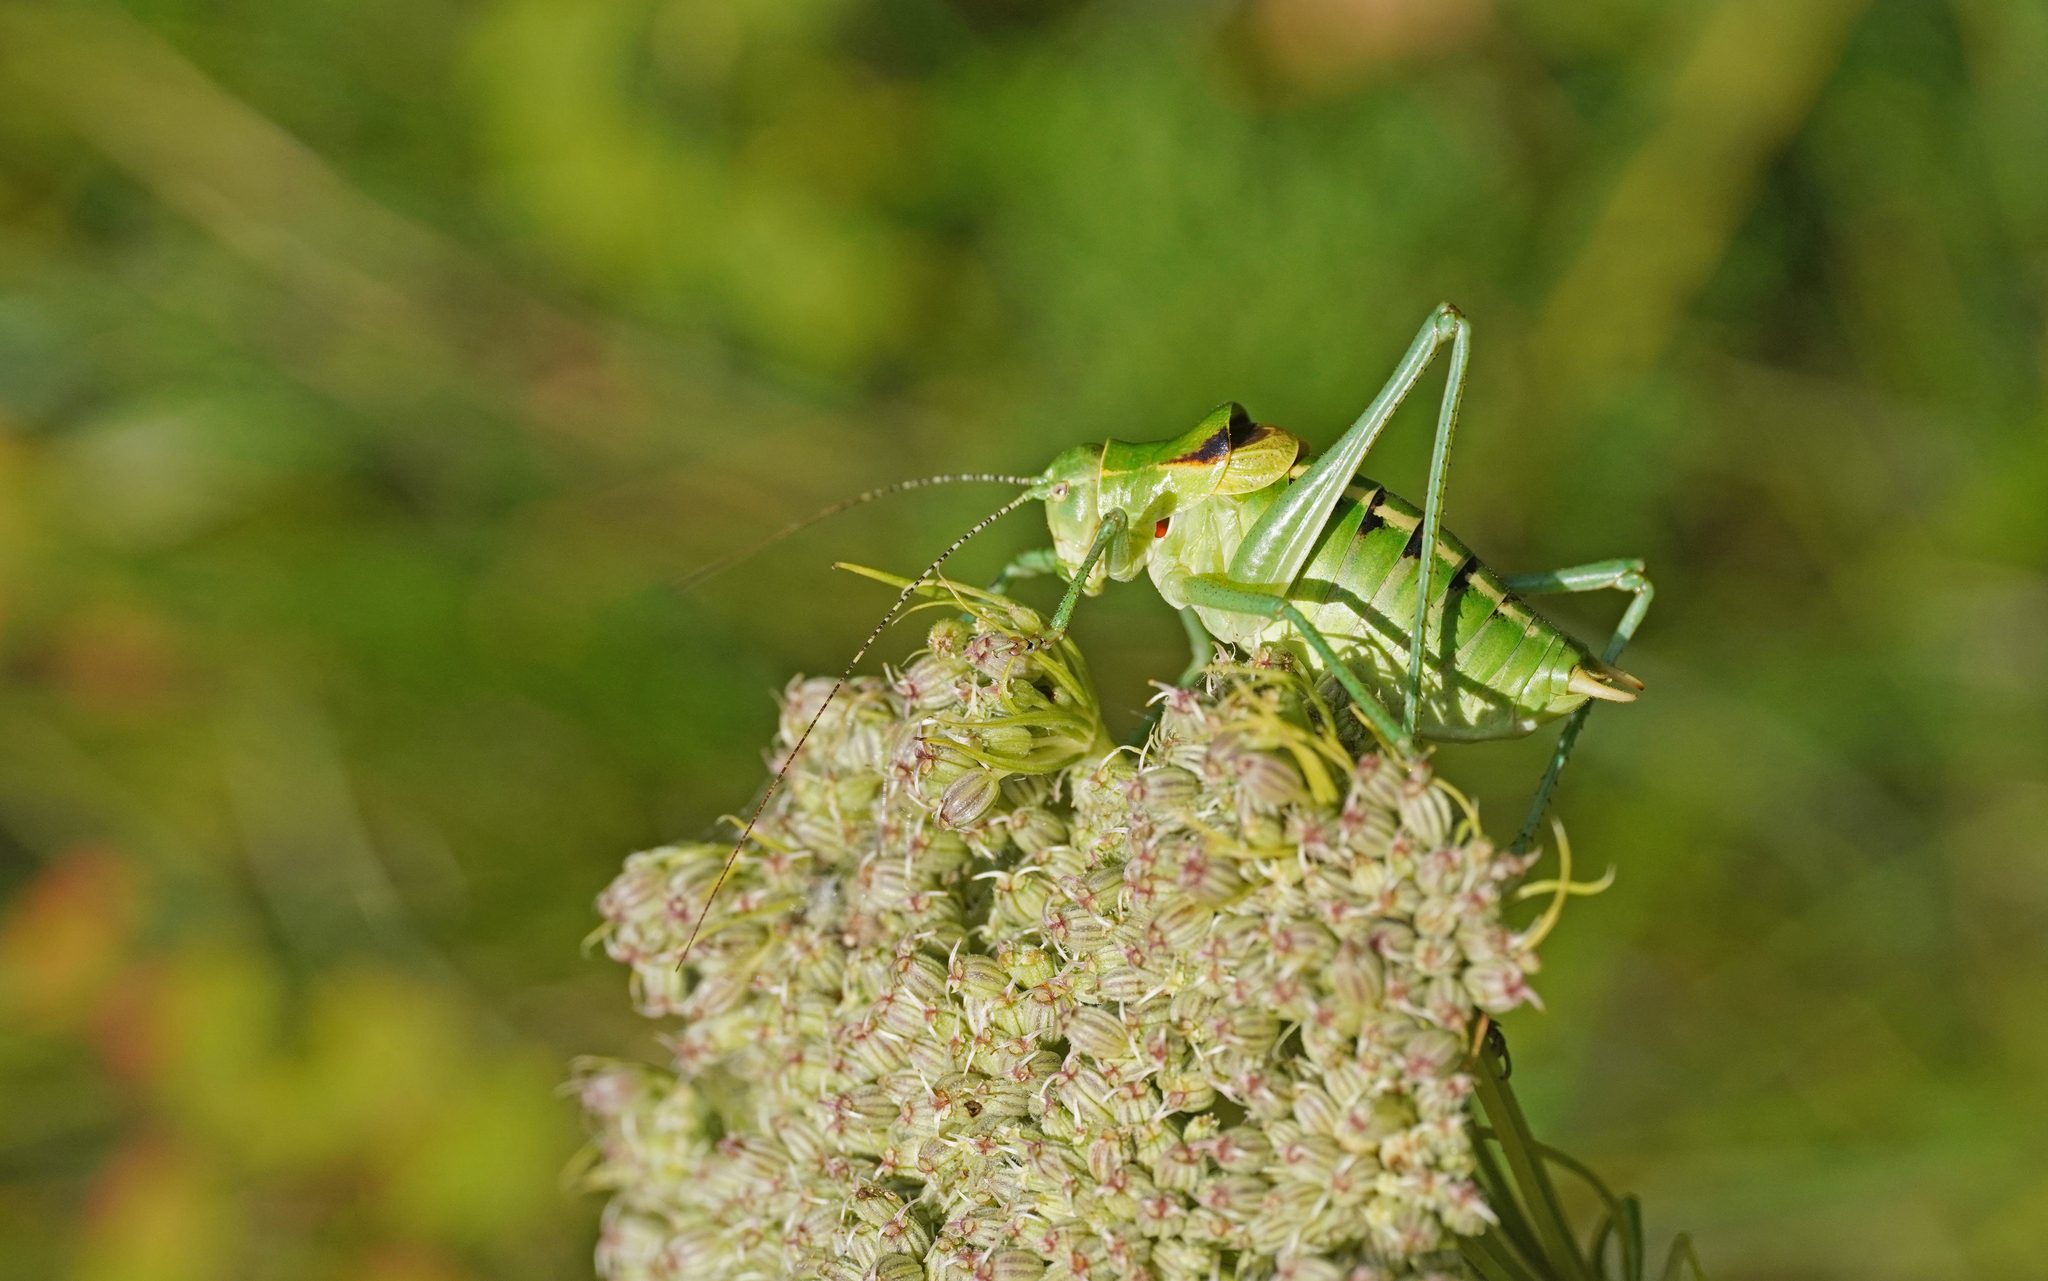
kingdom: Animalia
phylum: Arthropoda
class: Insecta
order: Orthoptera
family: Tettigoniidae
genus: Poecilimon
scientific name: Poecilimon ornatus
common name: Ornate bright bush-cricket
